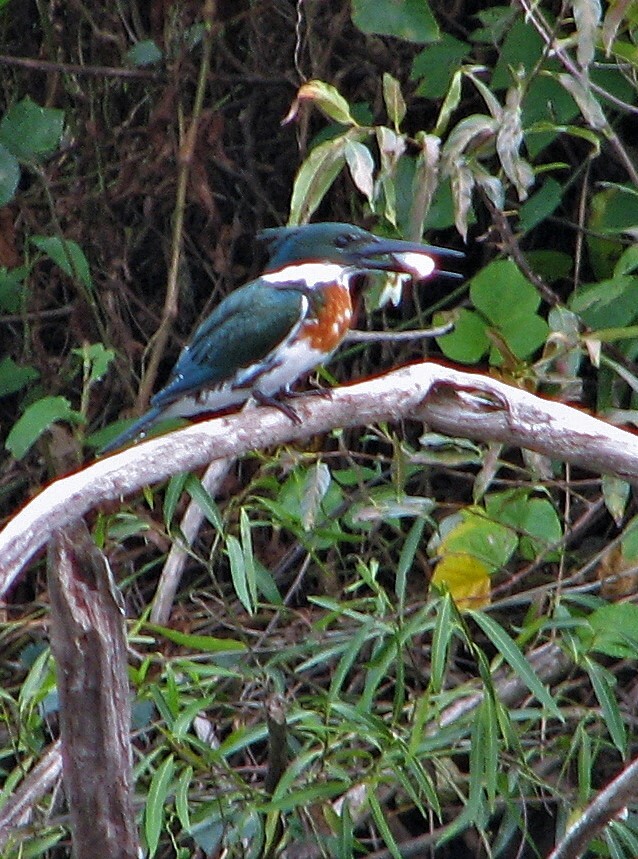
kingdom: Animalia
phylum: Chordata
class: Aves
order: Coraciiformes
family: Alcedinidae
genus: Chloroceryle
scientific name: Chloroceryle amazona
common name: Amazon kingfisher
